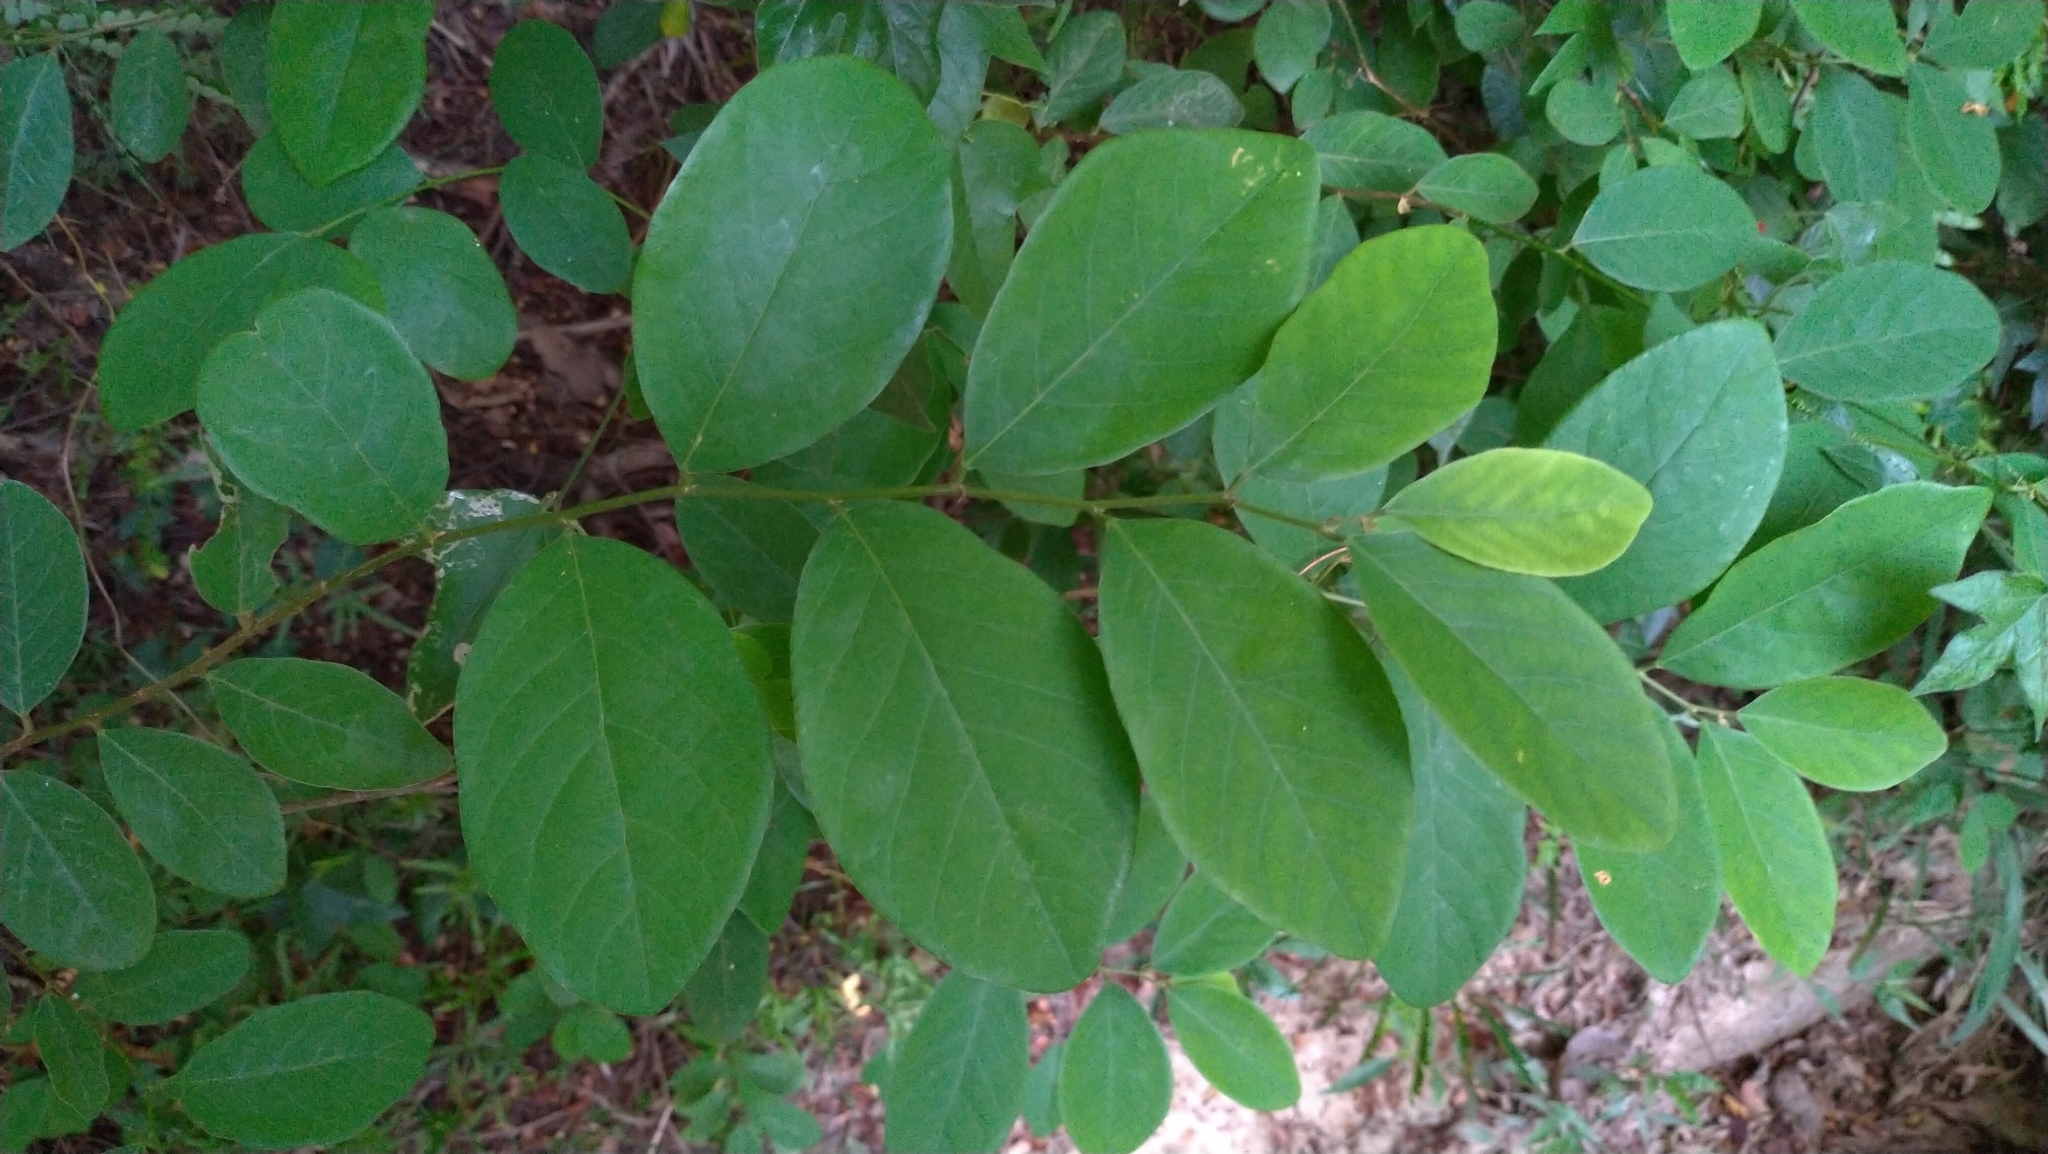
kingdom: Plantae
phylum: Tracheophyta
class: Magnoliopsida
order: Malpighiales
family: Phyllanthaceae
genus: Bridelia
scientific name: Bridelia tomentosa
